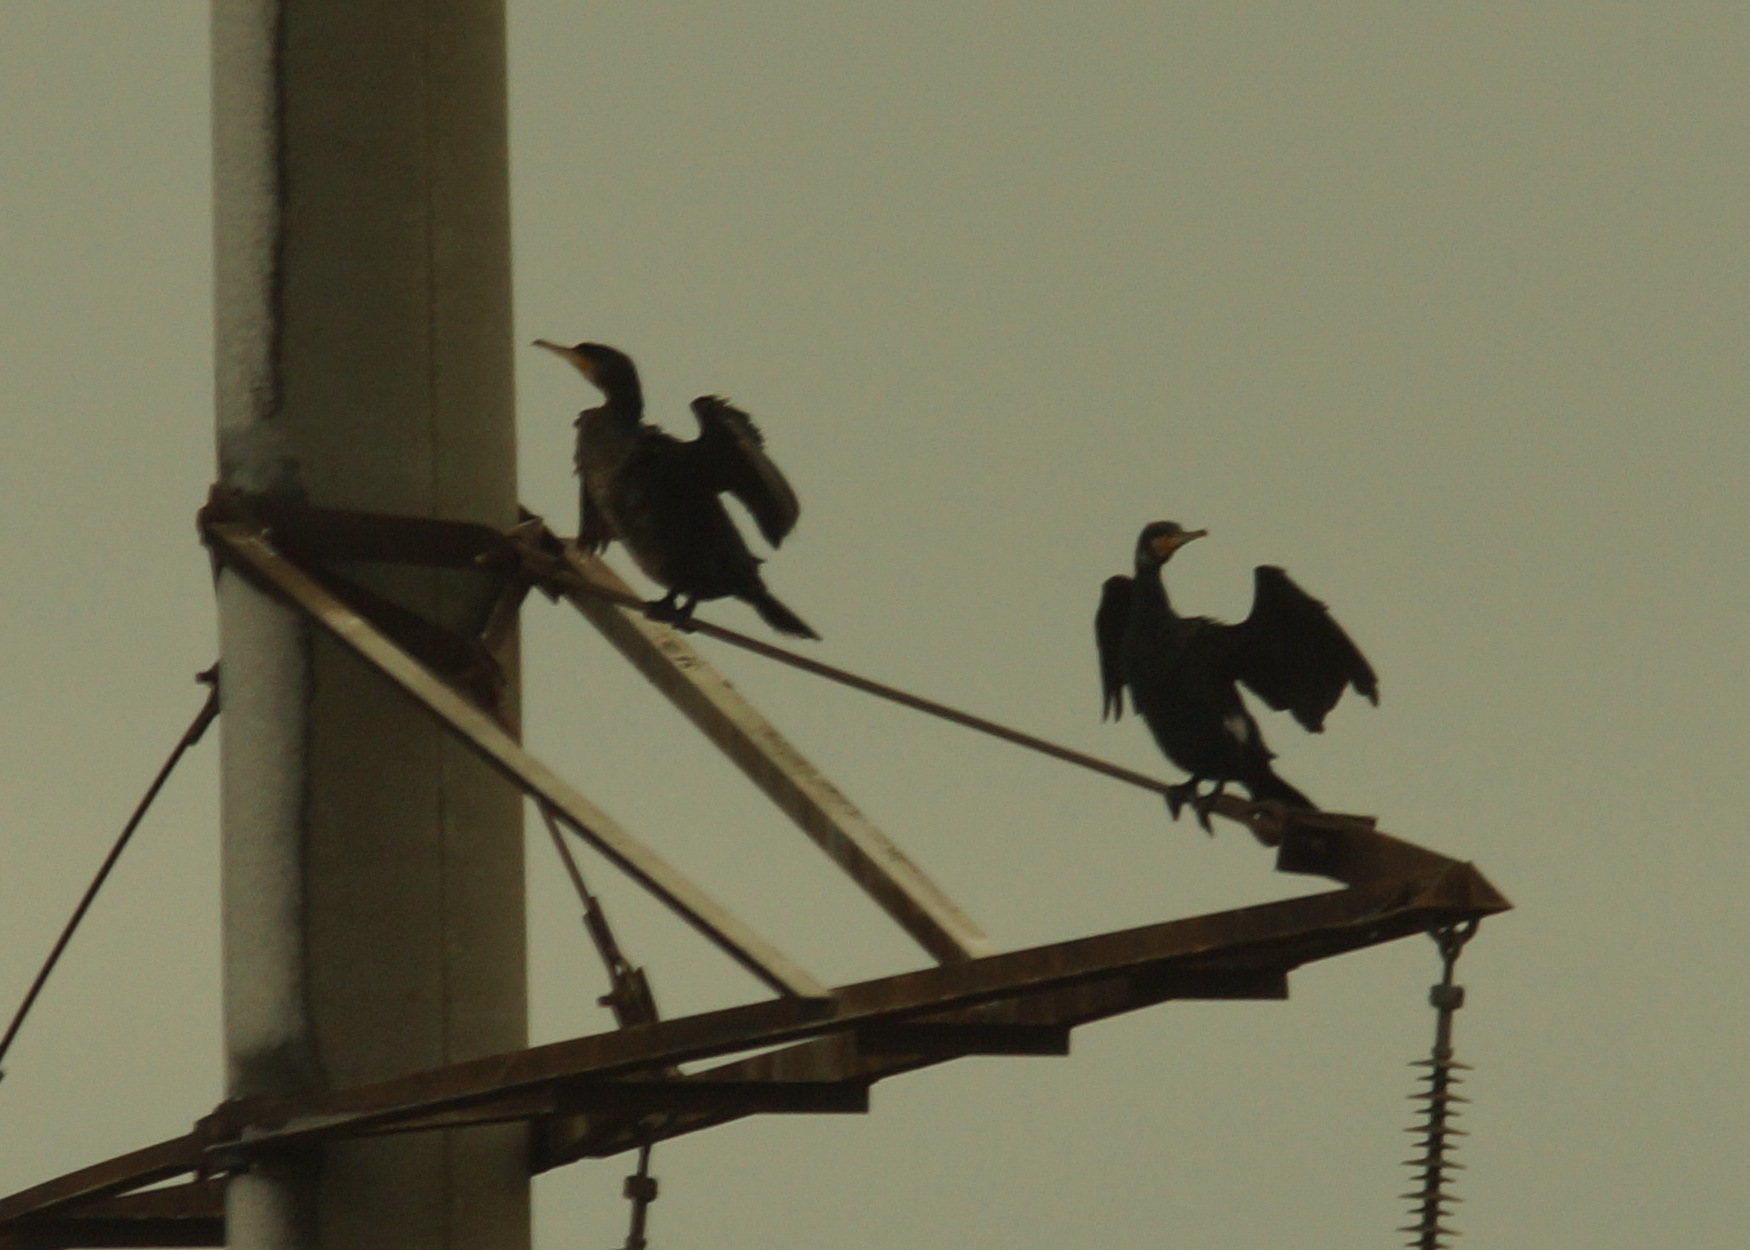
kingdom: Animalia
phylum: Chordata
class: Aves
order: Suliformes
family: Phalacrocoracidae
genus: Phalacrocorax
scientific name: Phalacrocorax carbo
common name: Great cormorant
